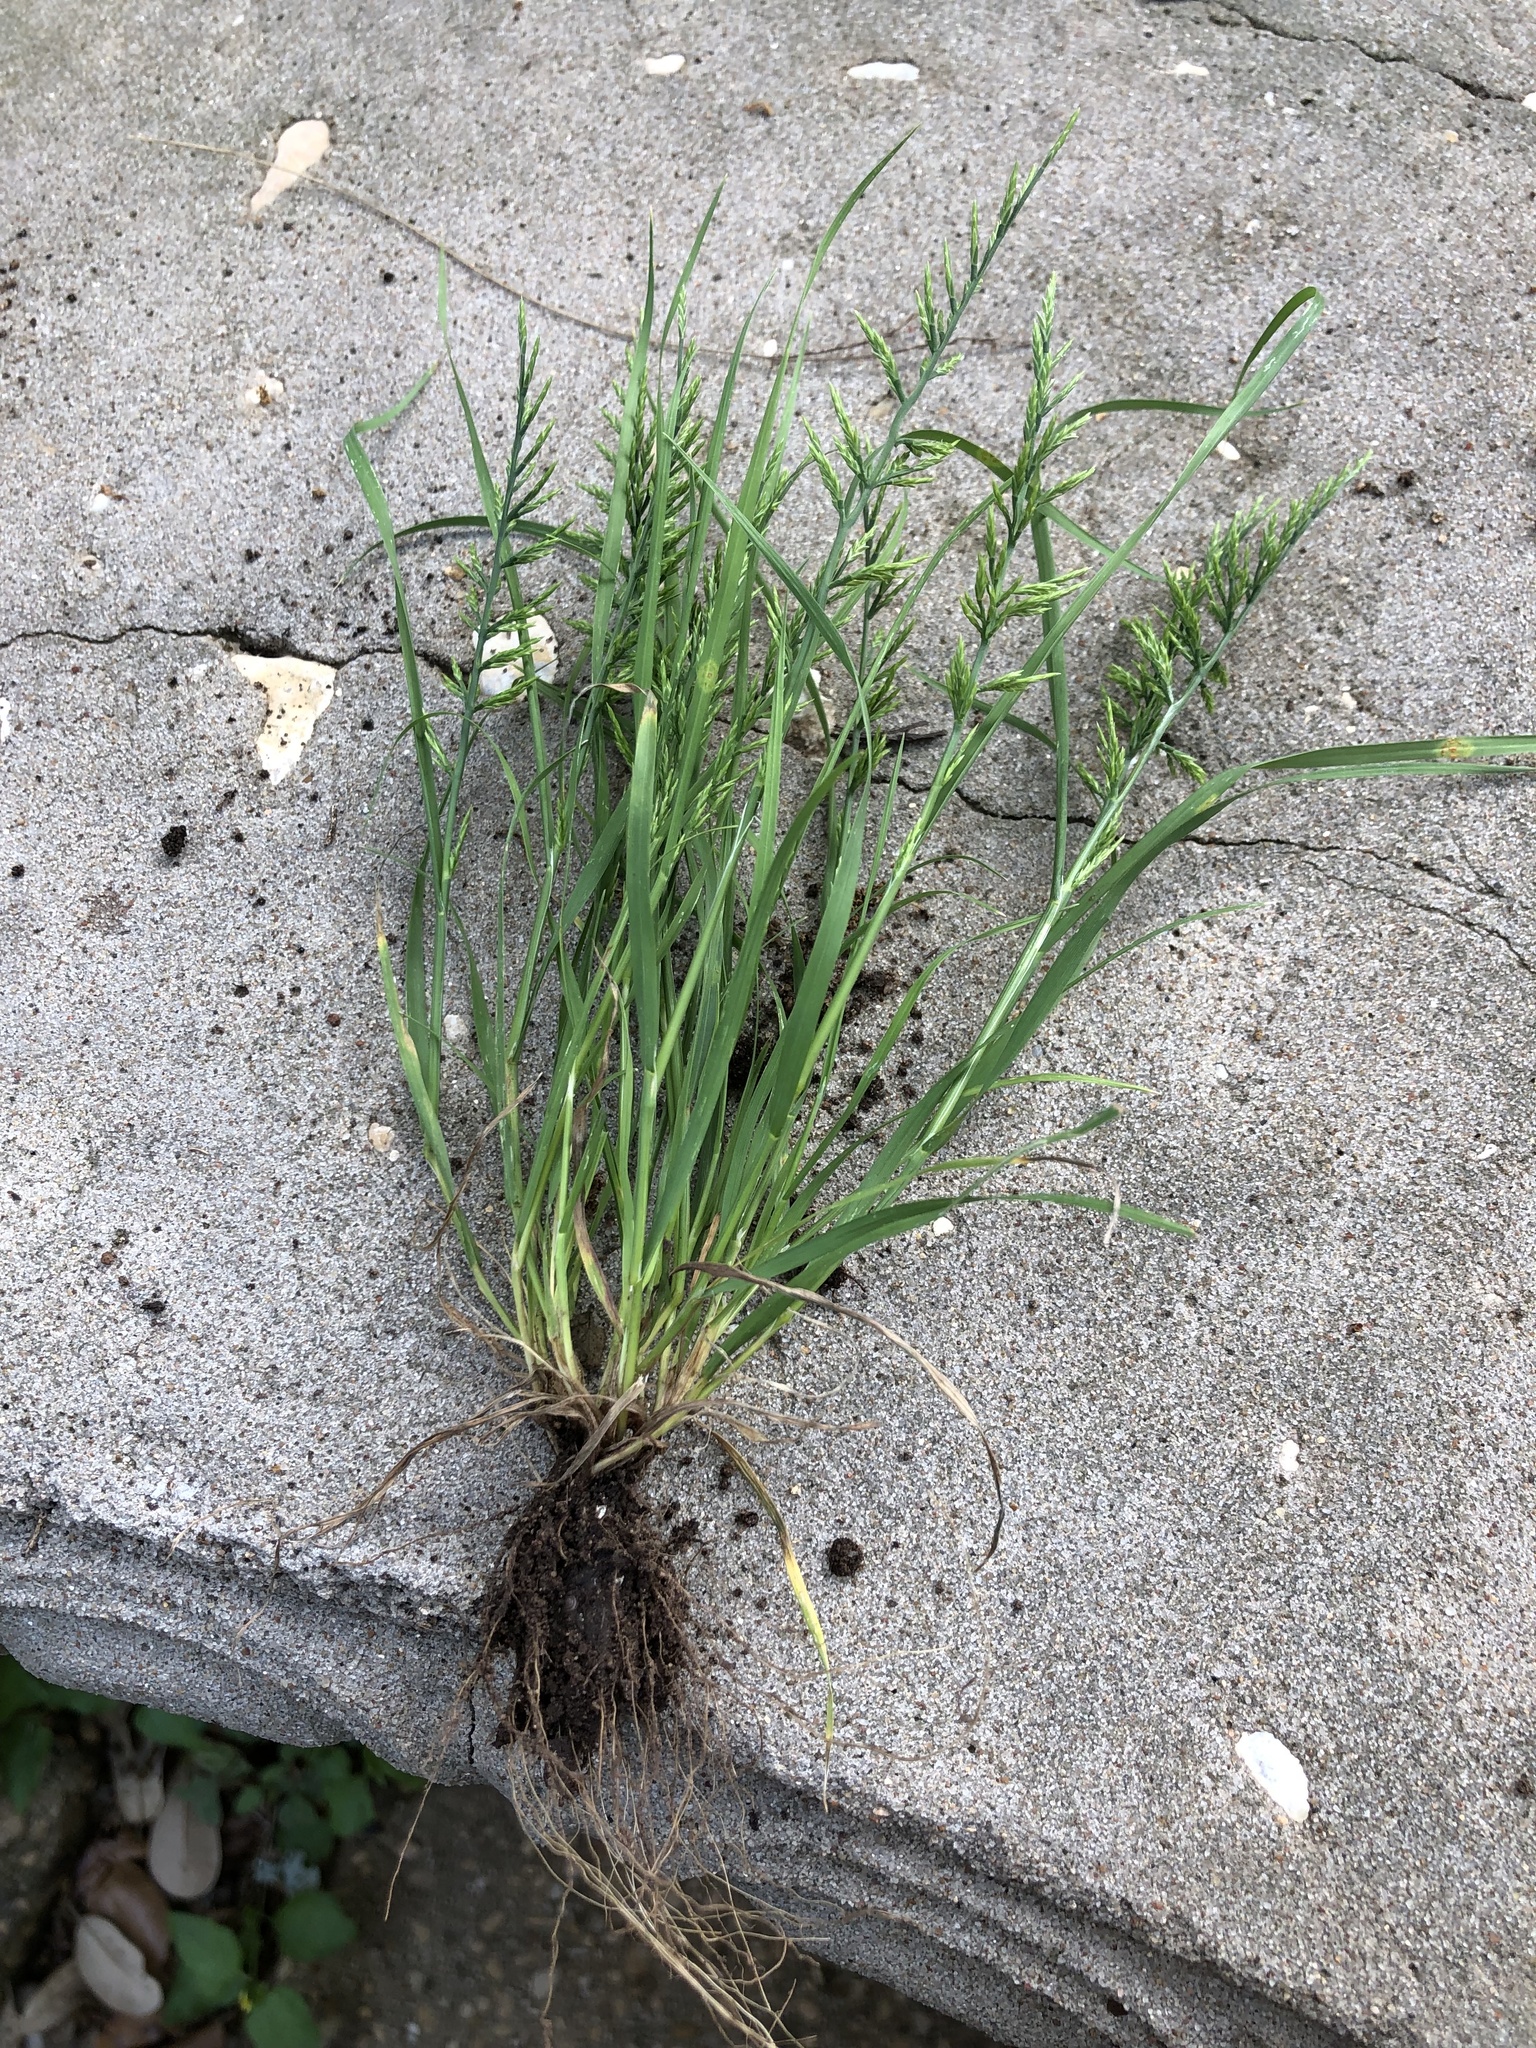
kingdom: Plantae
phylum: Tracheophyta
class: Liliopsida
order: Poales
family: Poaceae
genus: Catapodium
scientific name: Catapodium rigidum
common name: Fern-grass
